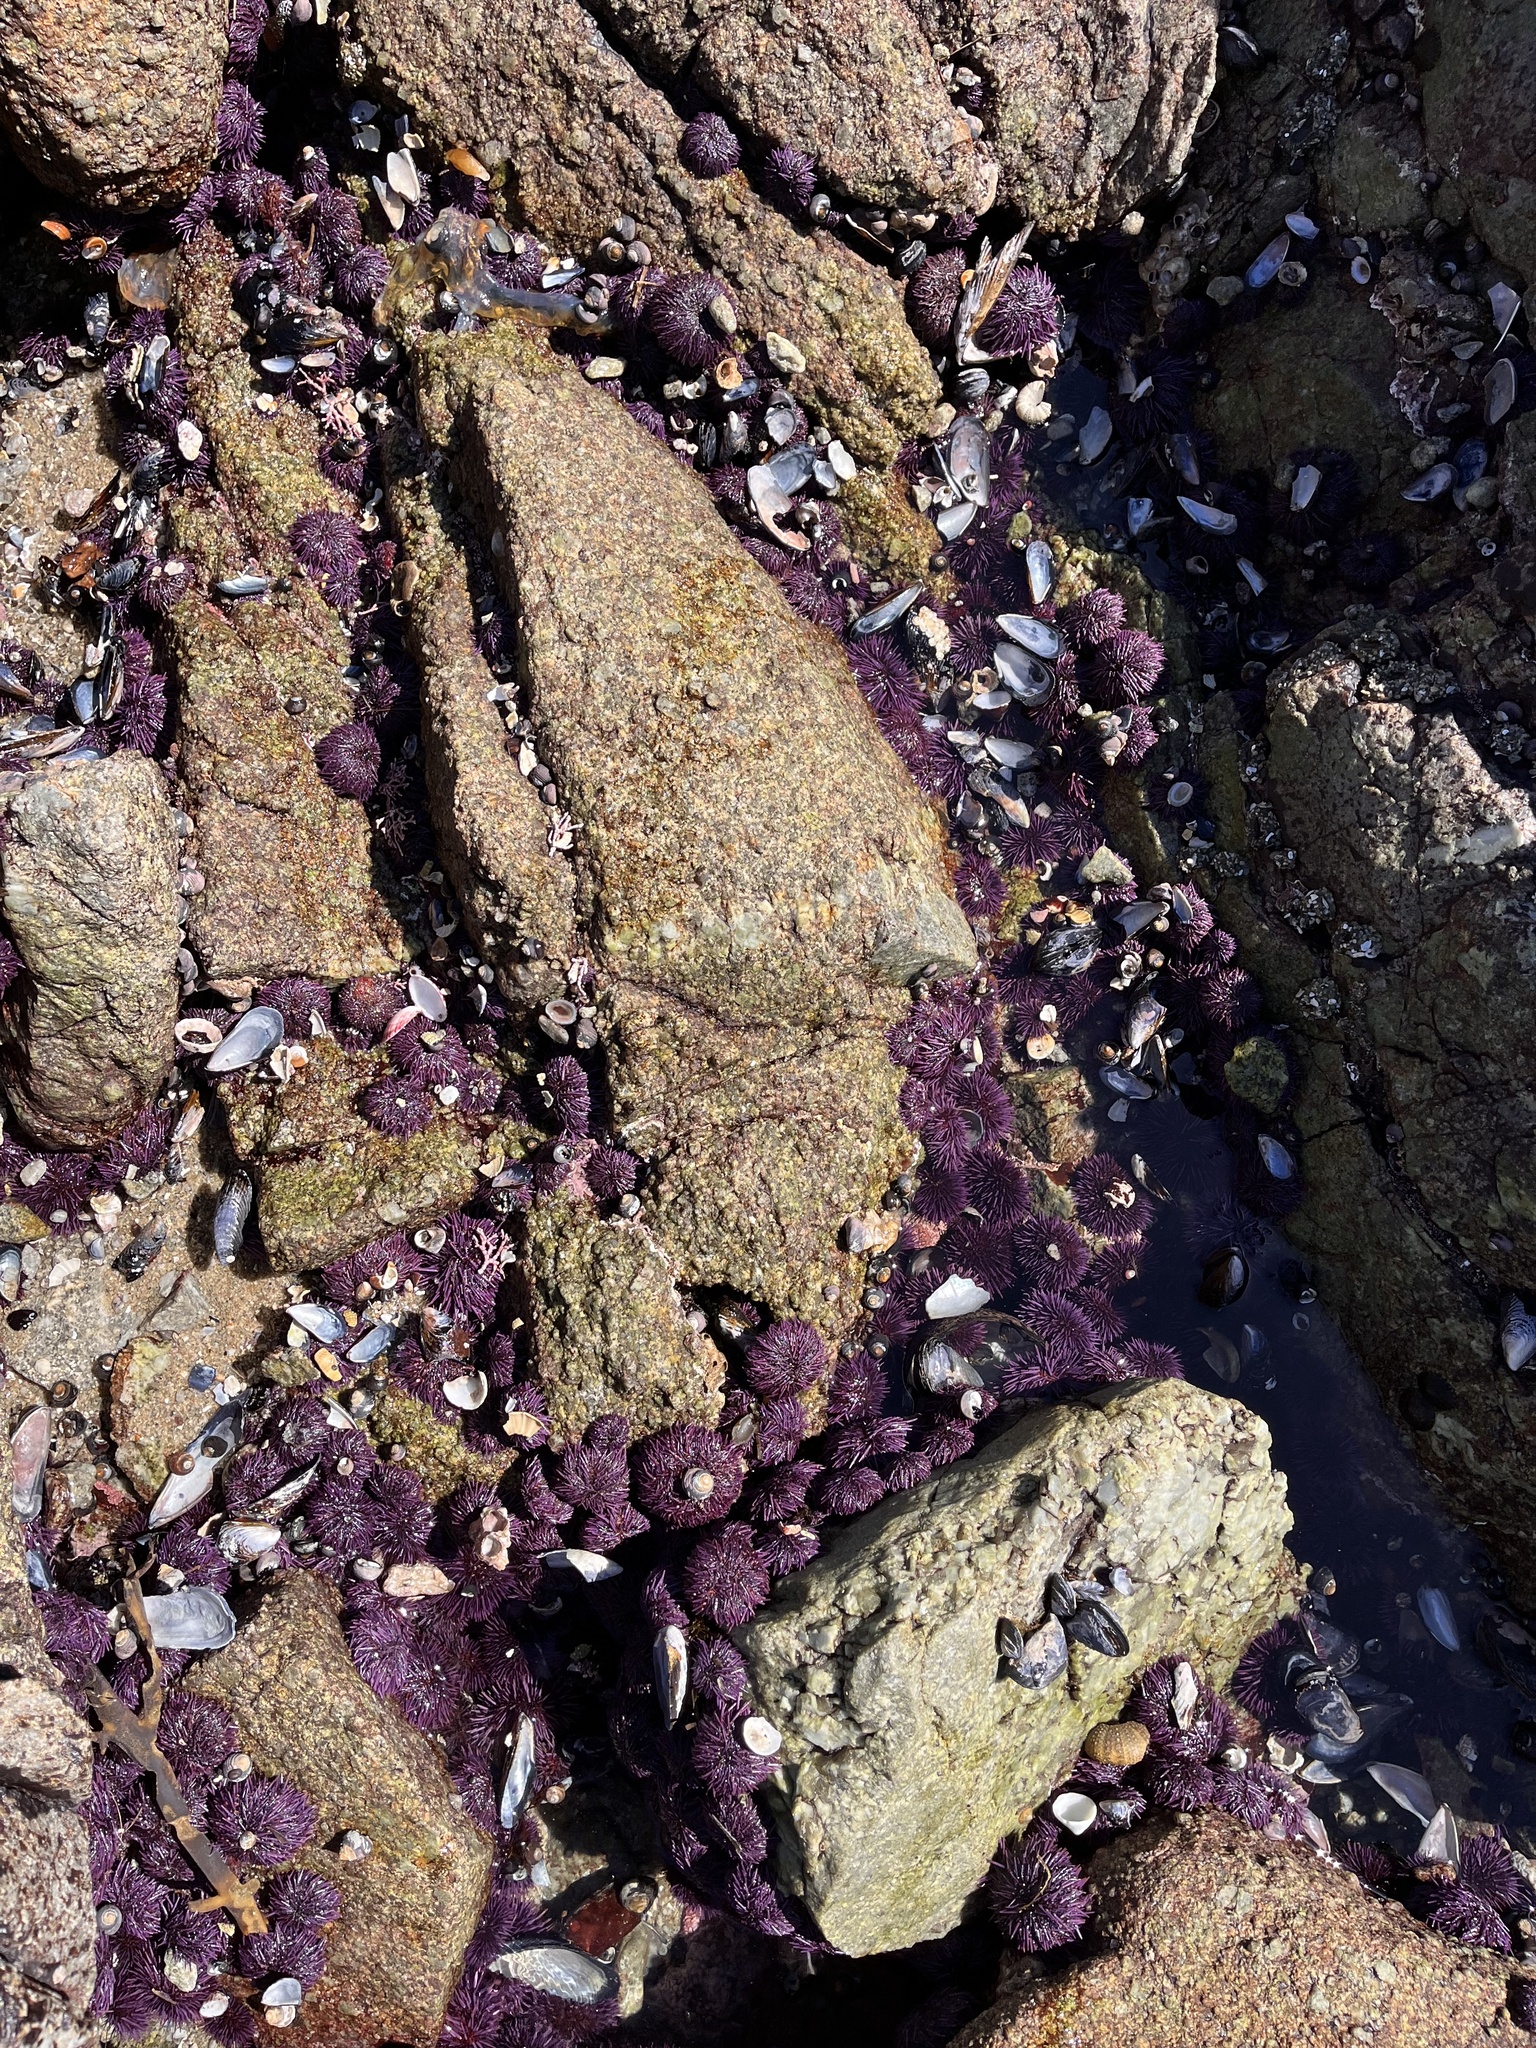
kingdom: Animalia
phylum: Echinodermata
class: Echinoidea
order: Camarodonta
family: Strongylocentrotidae
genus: Strongylocentrotus
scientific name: Strongylocentrotus purpuratus
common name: Purple sea urchin
